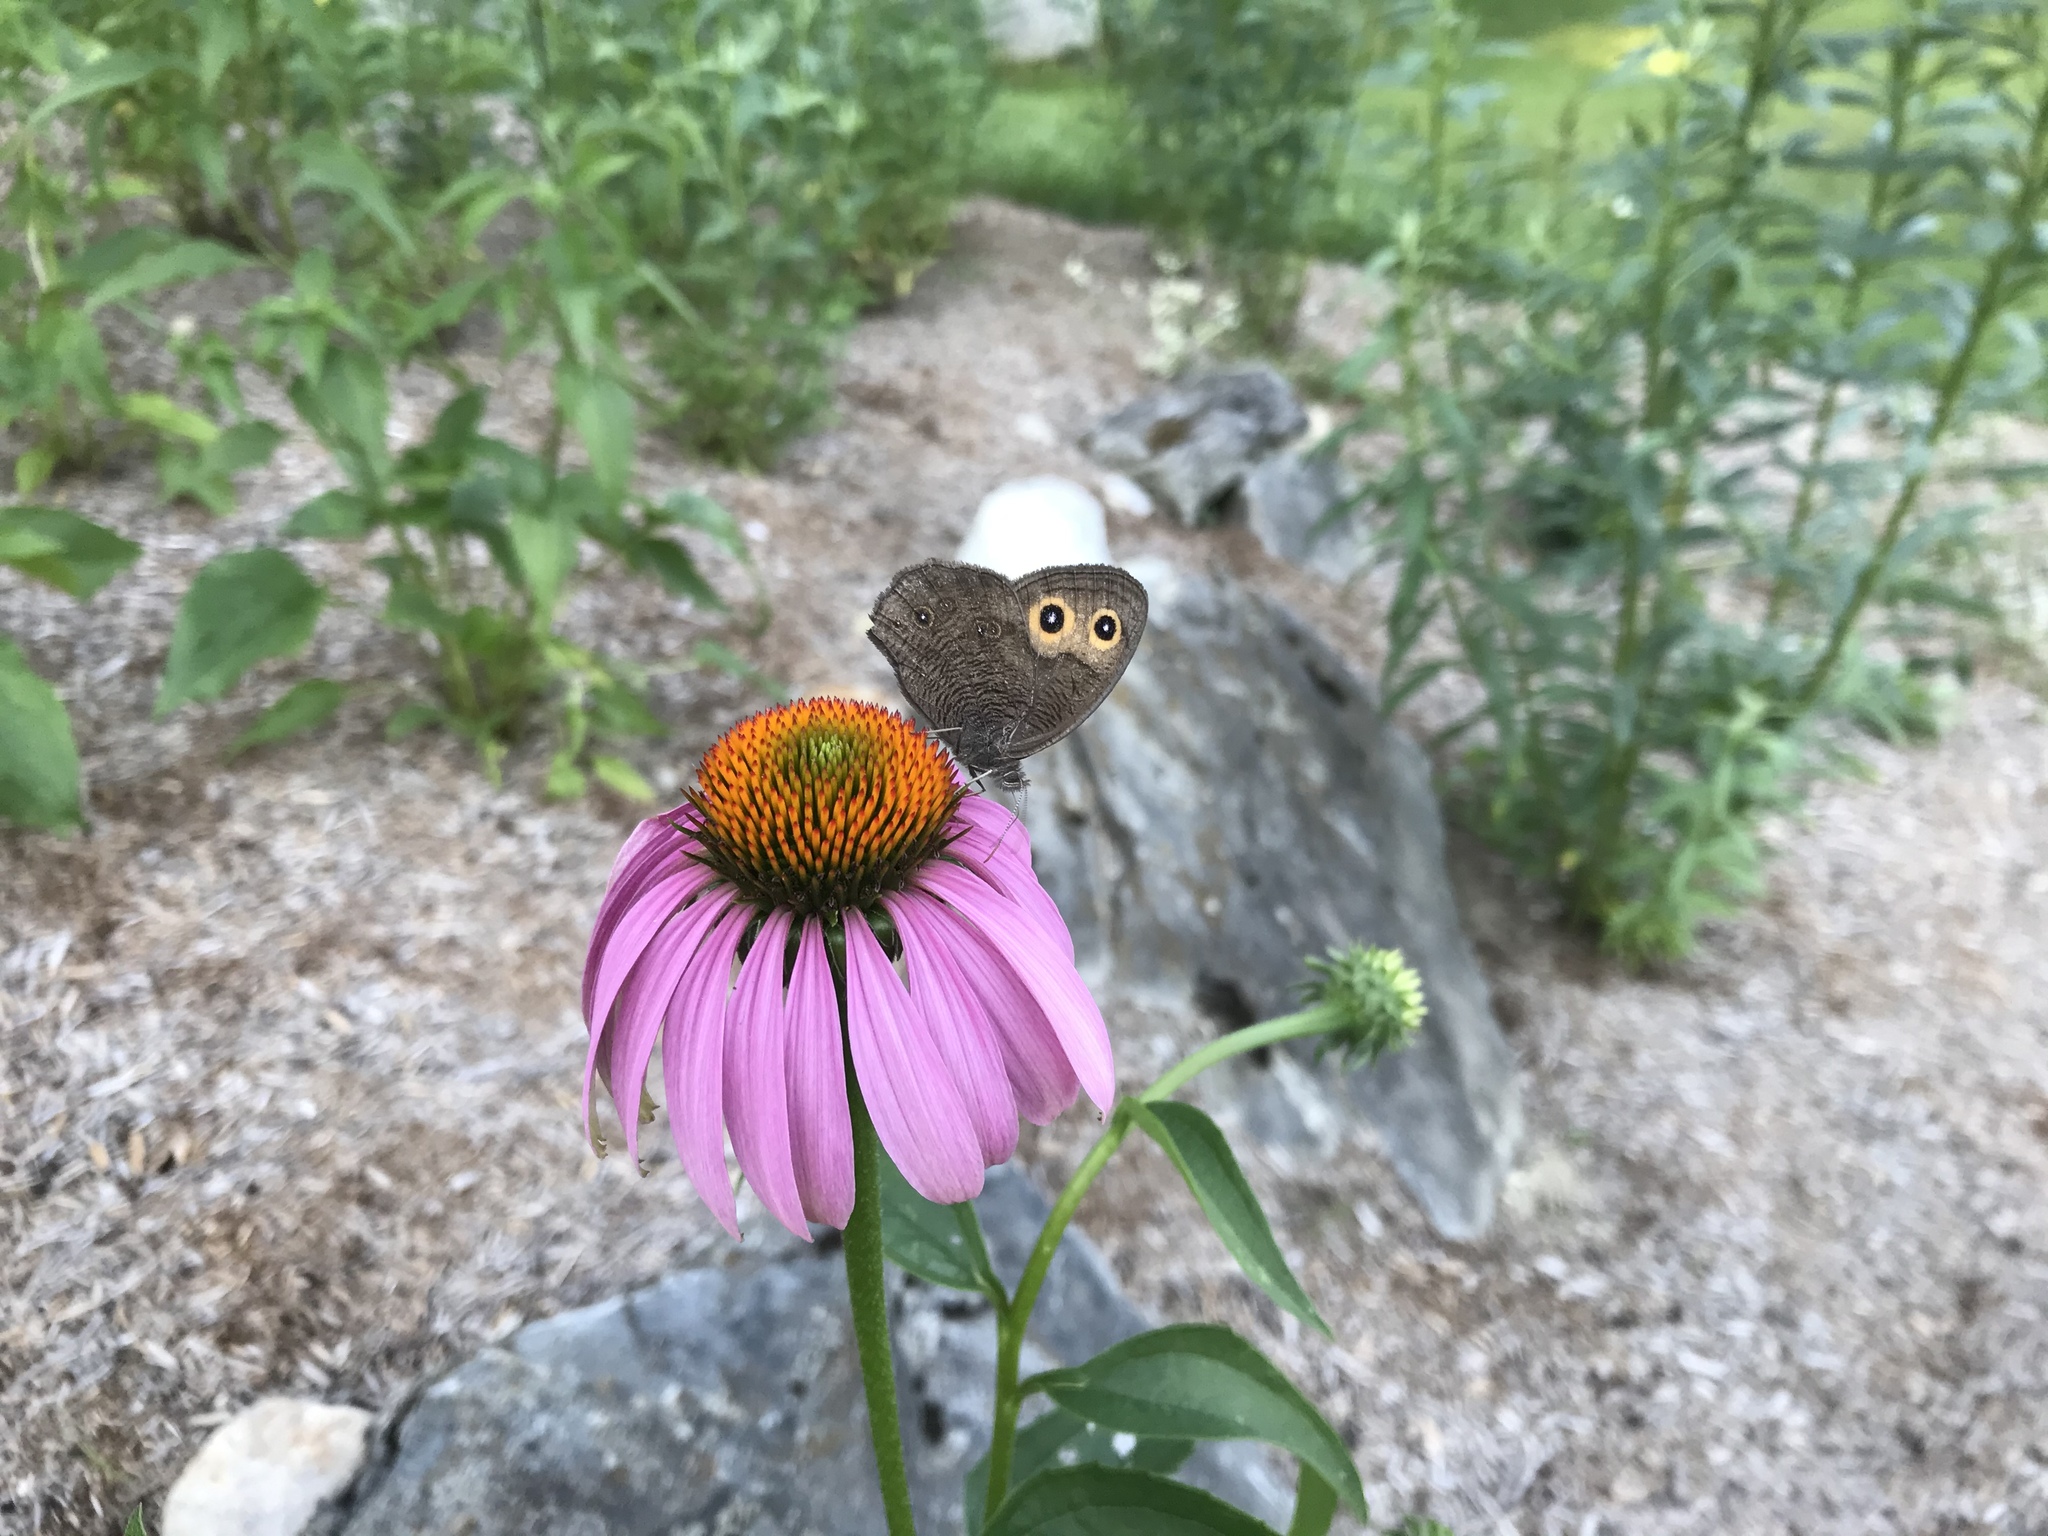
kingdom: Animalia
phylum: Arthropoda
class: Insecta
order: Lepidoptera
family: Nymphalidae
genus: Cercyonis
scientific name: Cercyonis pegala
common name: Common wood-nymph
